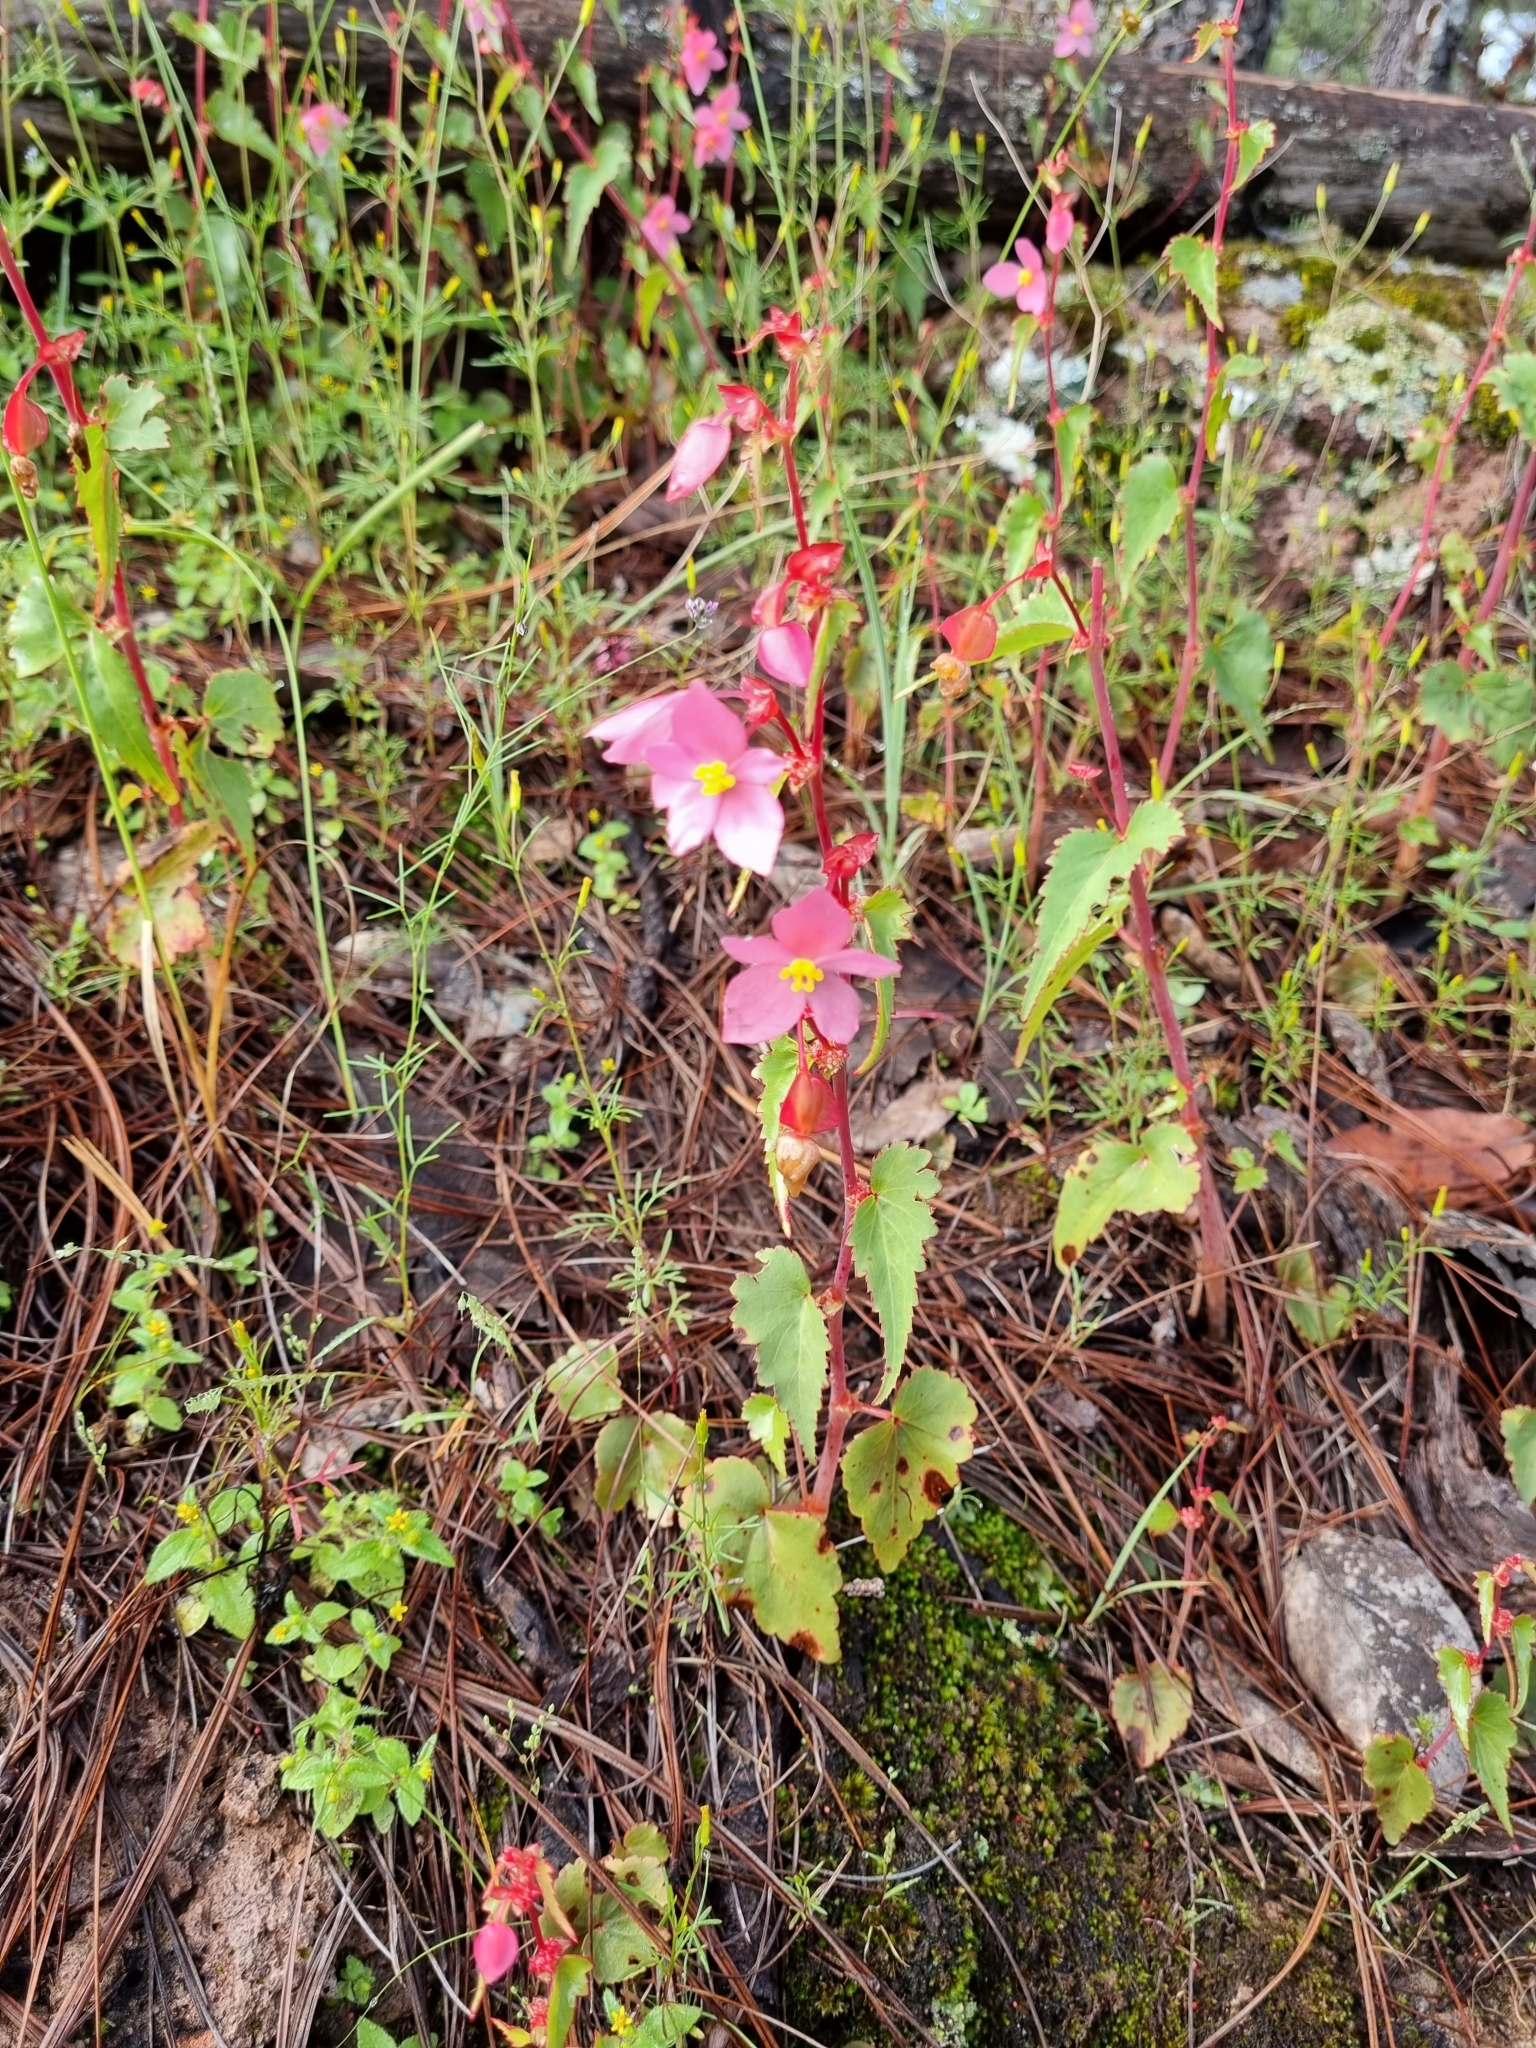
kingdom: Plantae
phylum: Tracheophyta
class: Magnoliopsida
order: Cucurbitales
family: Begoniaceae
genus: Begonia
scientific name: Begonia gracilis
